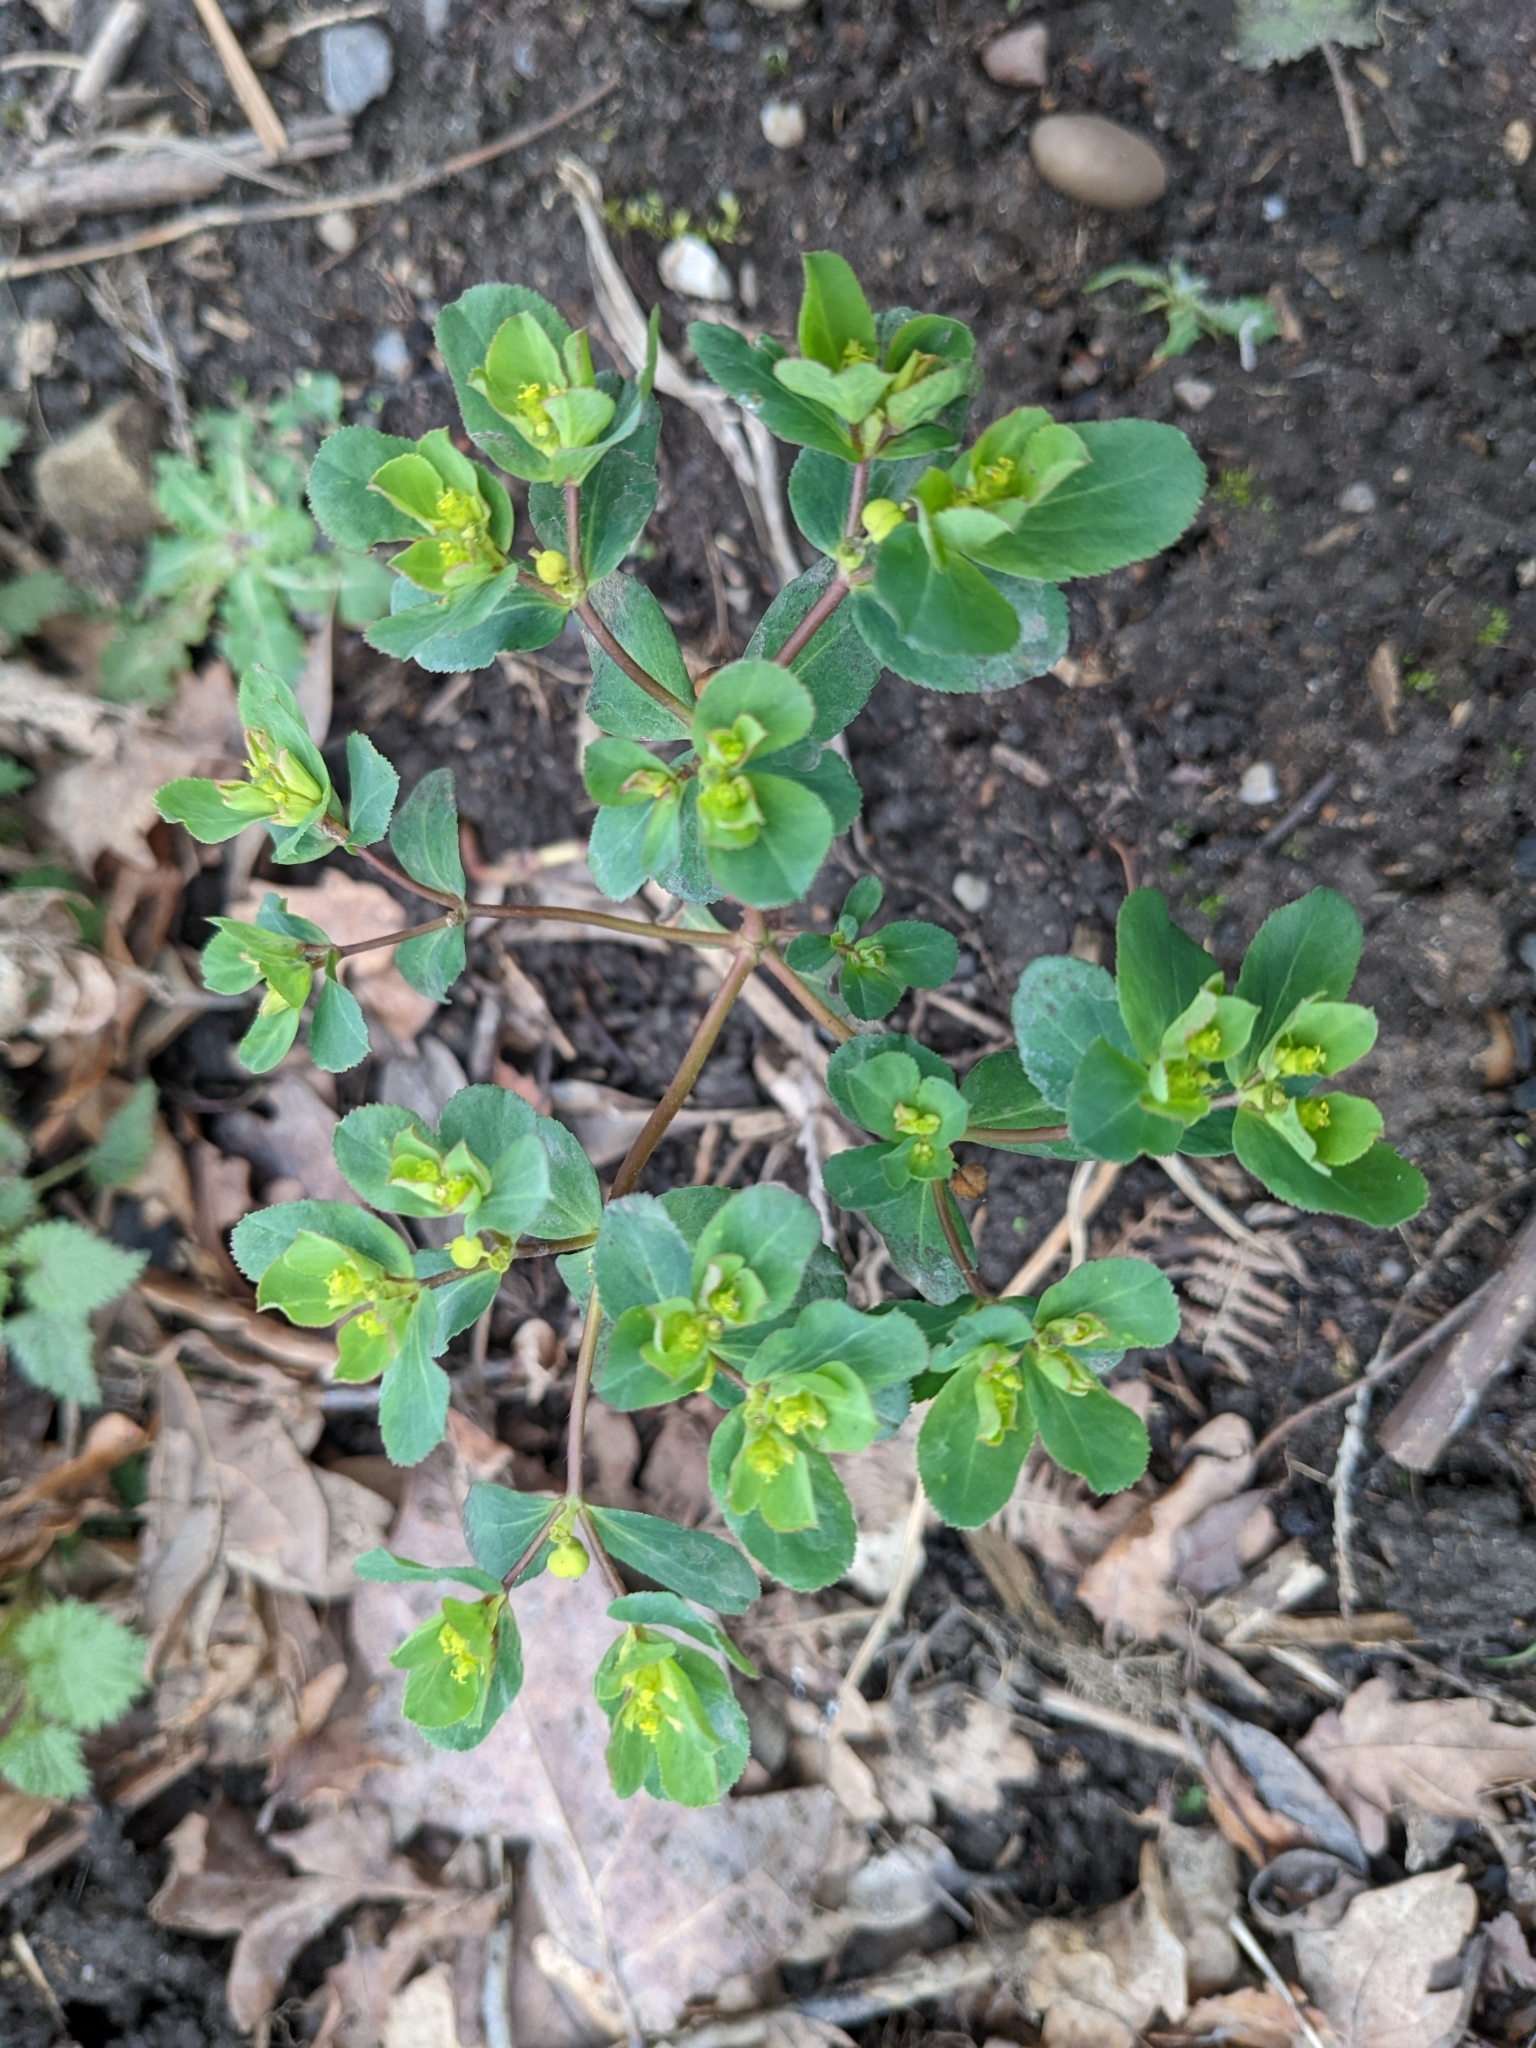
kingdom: Plantae
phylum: Tracheophyta
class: Magnoliopsida
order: Malpighiales
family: Euphorbiaceae
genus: Euphorbia
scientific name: Euphorbia helioscopia
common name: Sun spurge
